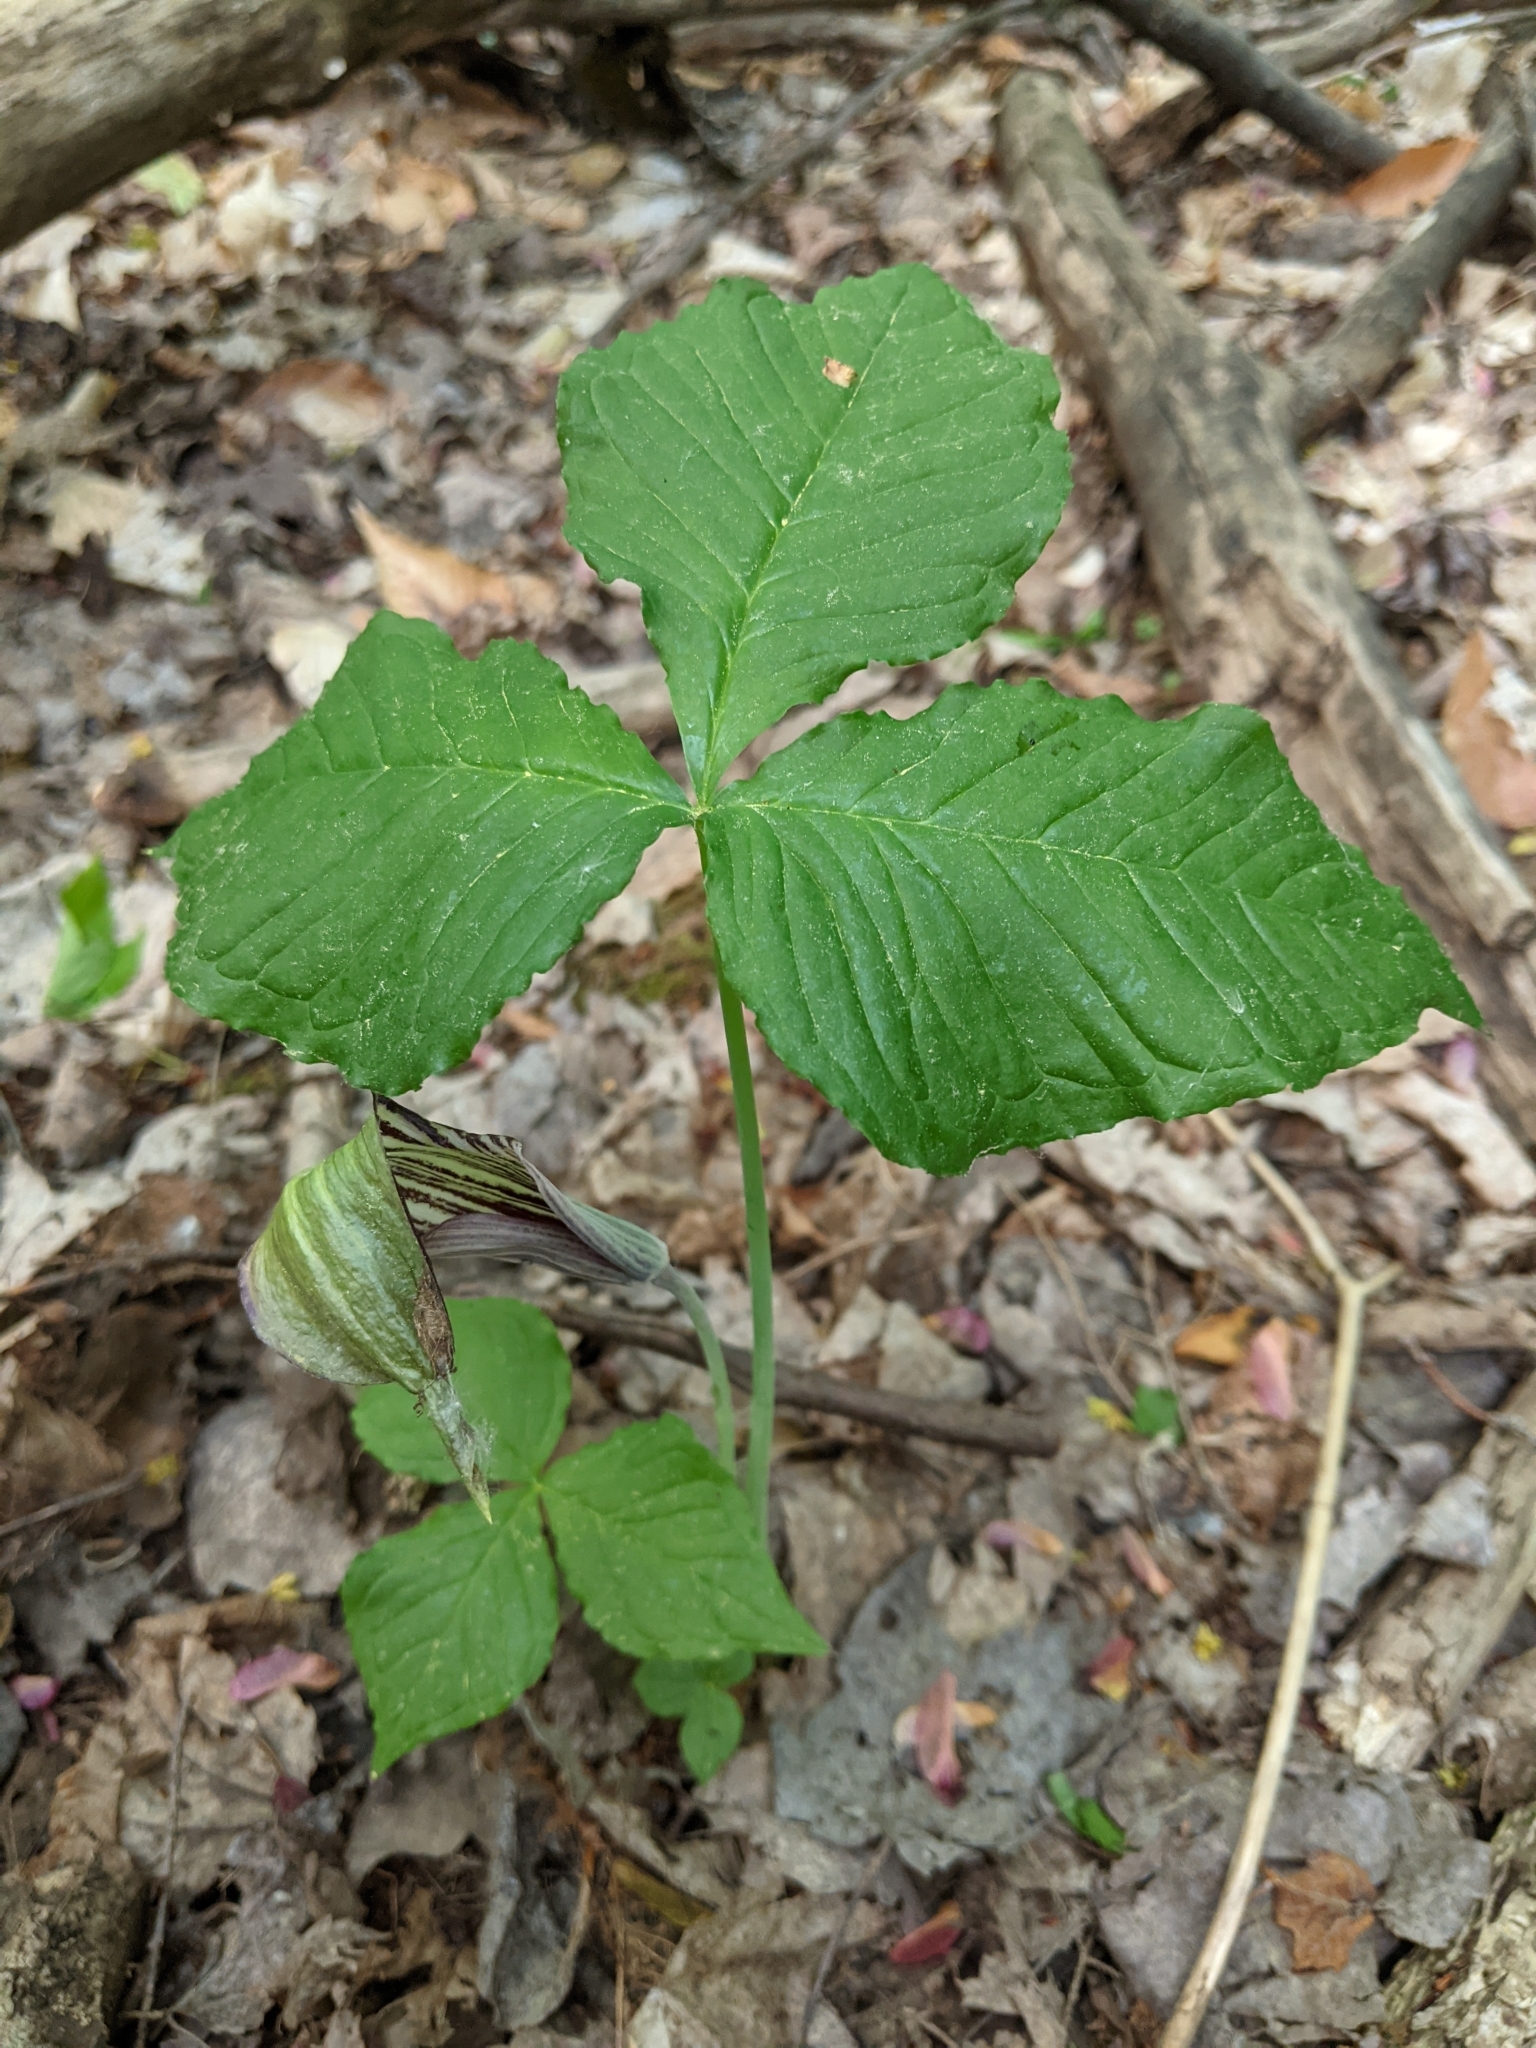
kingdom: Plantae
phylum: Tracheophyta
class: Liliopsida
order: Alismatales
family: Araceae
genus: Arisaema
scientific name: Arisaema triphyllum
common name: Jack-in-the-pulpit
